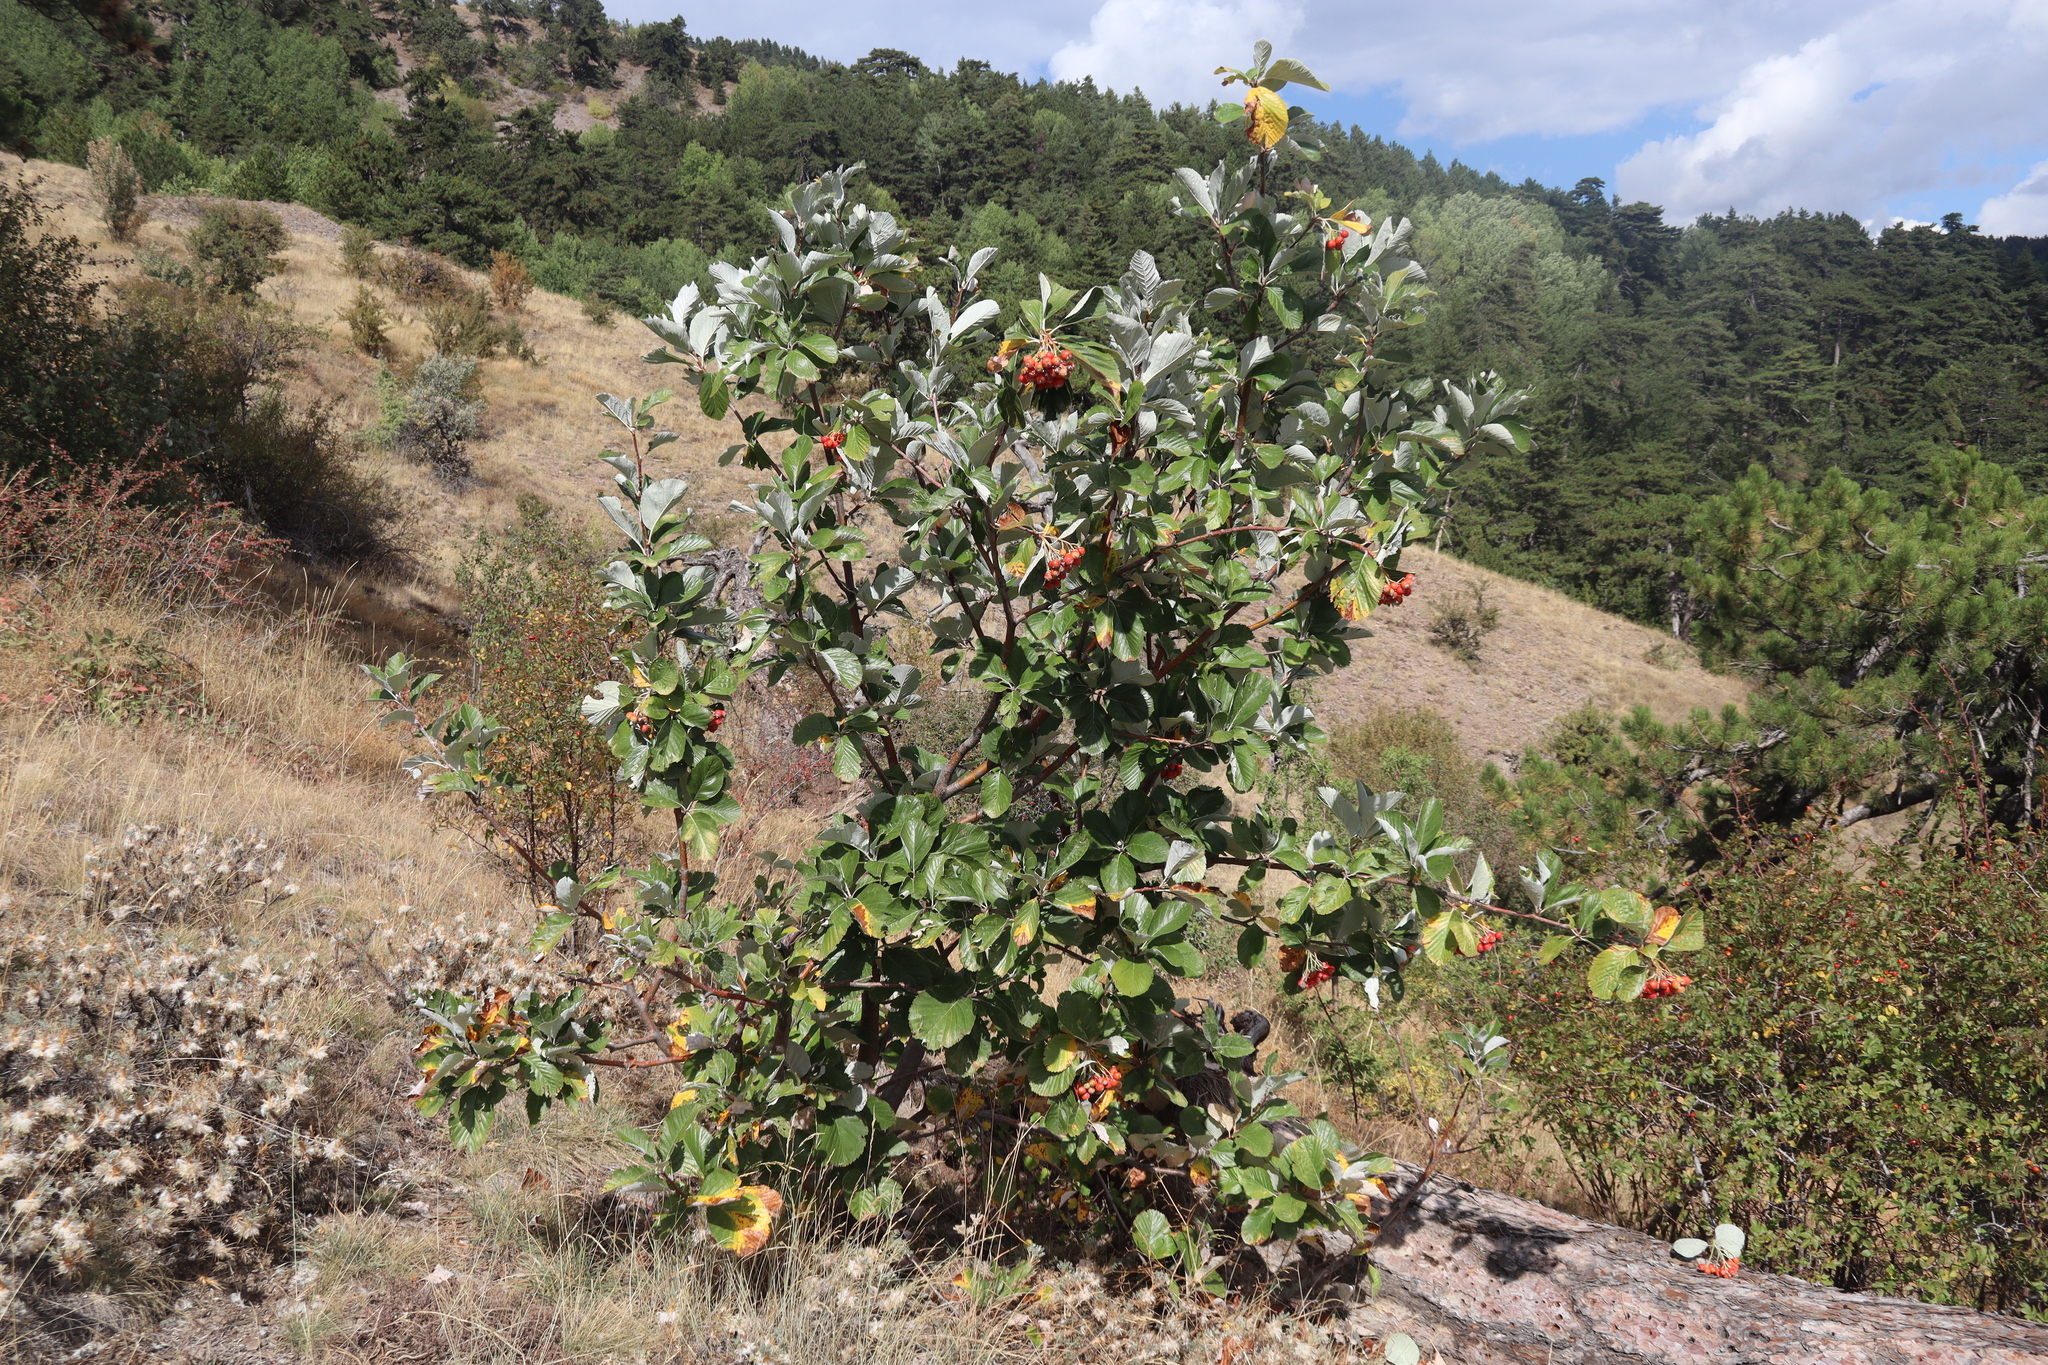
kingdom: Plantae
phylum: Tracheophyta
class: Magnoliopsida
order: Rosales
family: Rosaceae
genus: Aria
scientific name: Aria umbellata
